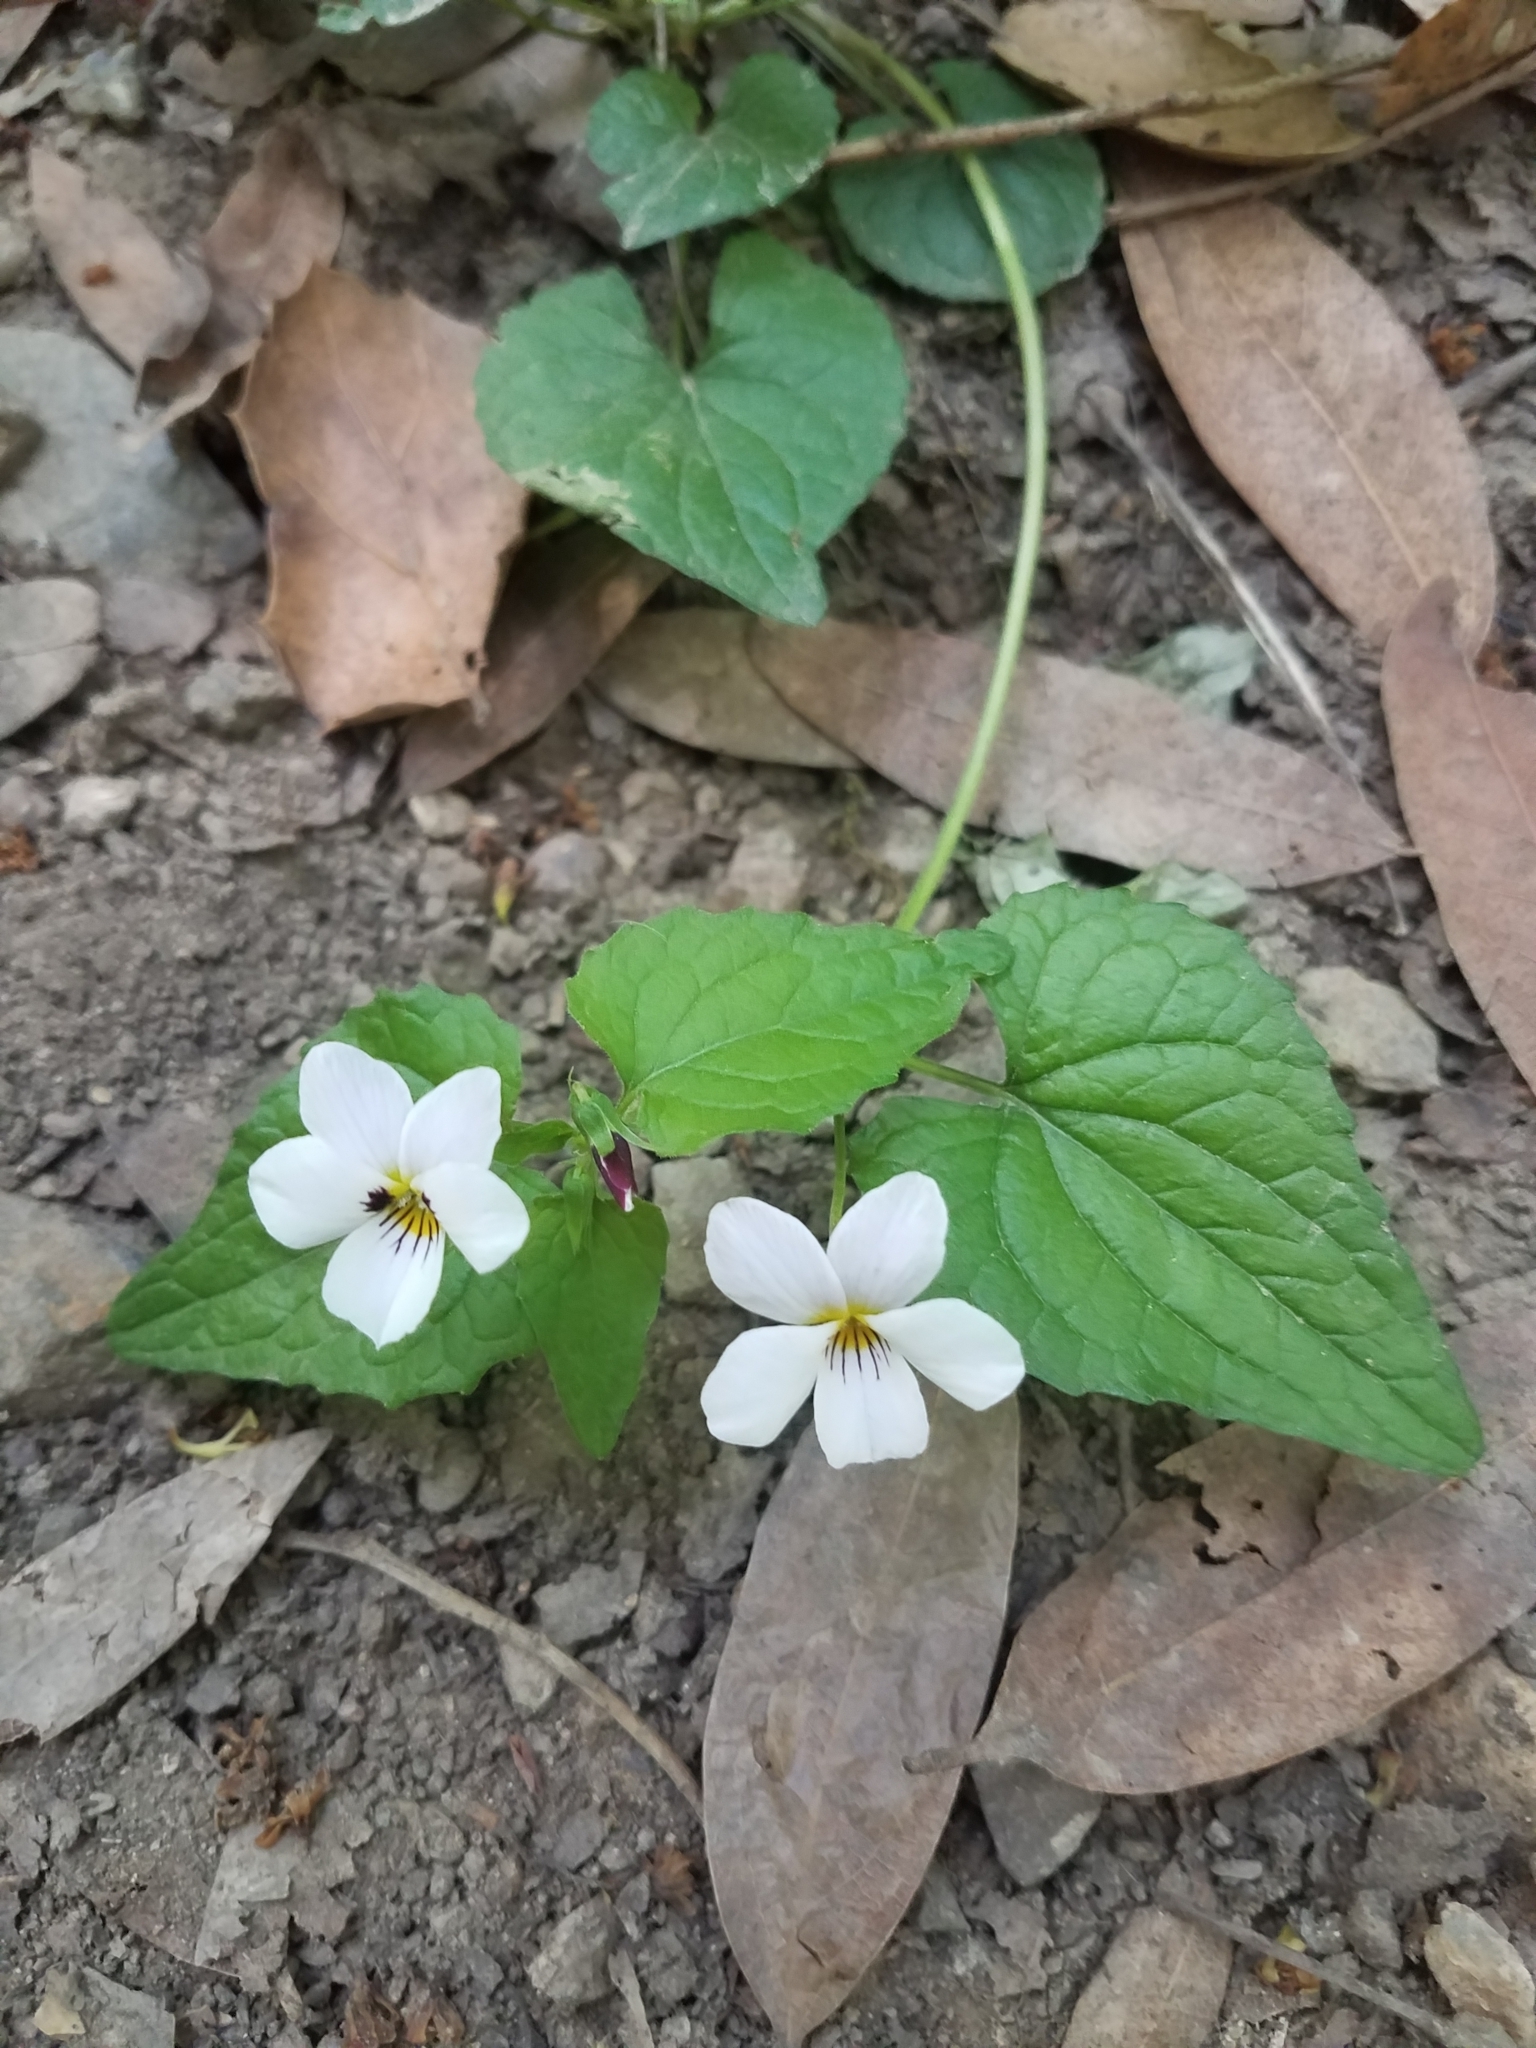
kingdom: Plantae
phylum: Tracheophyta
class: Magnoliopsida
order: Malpighiales
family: Violaceae
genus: Viola
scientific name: Viola ocellata
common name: Western heart's ease
